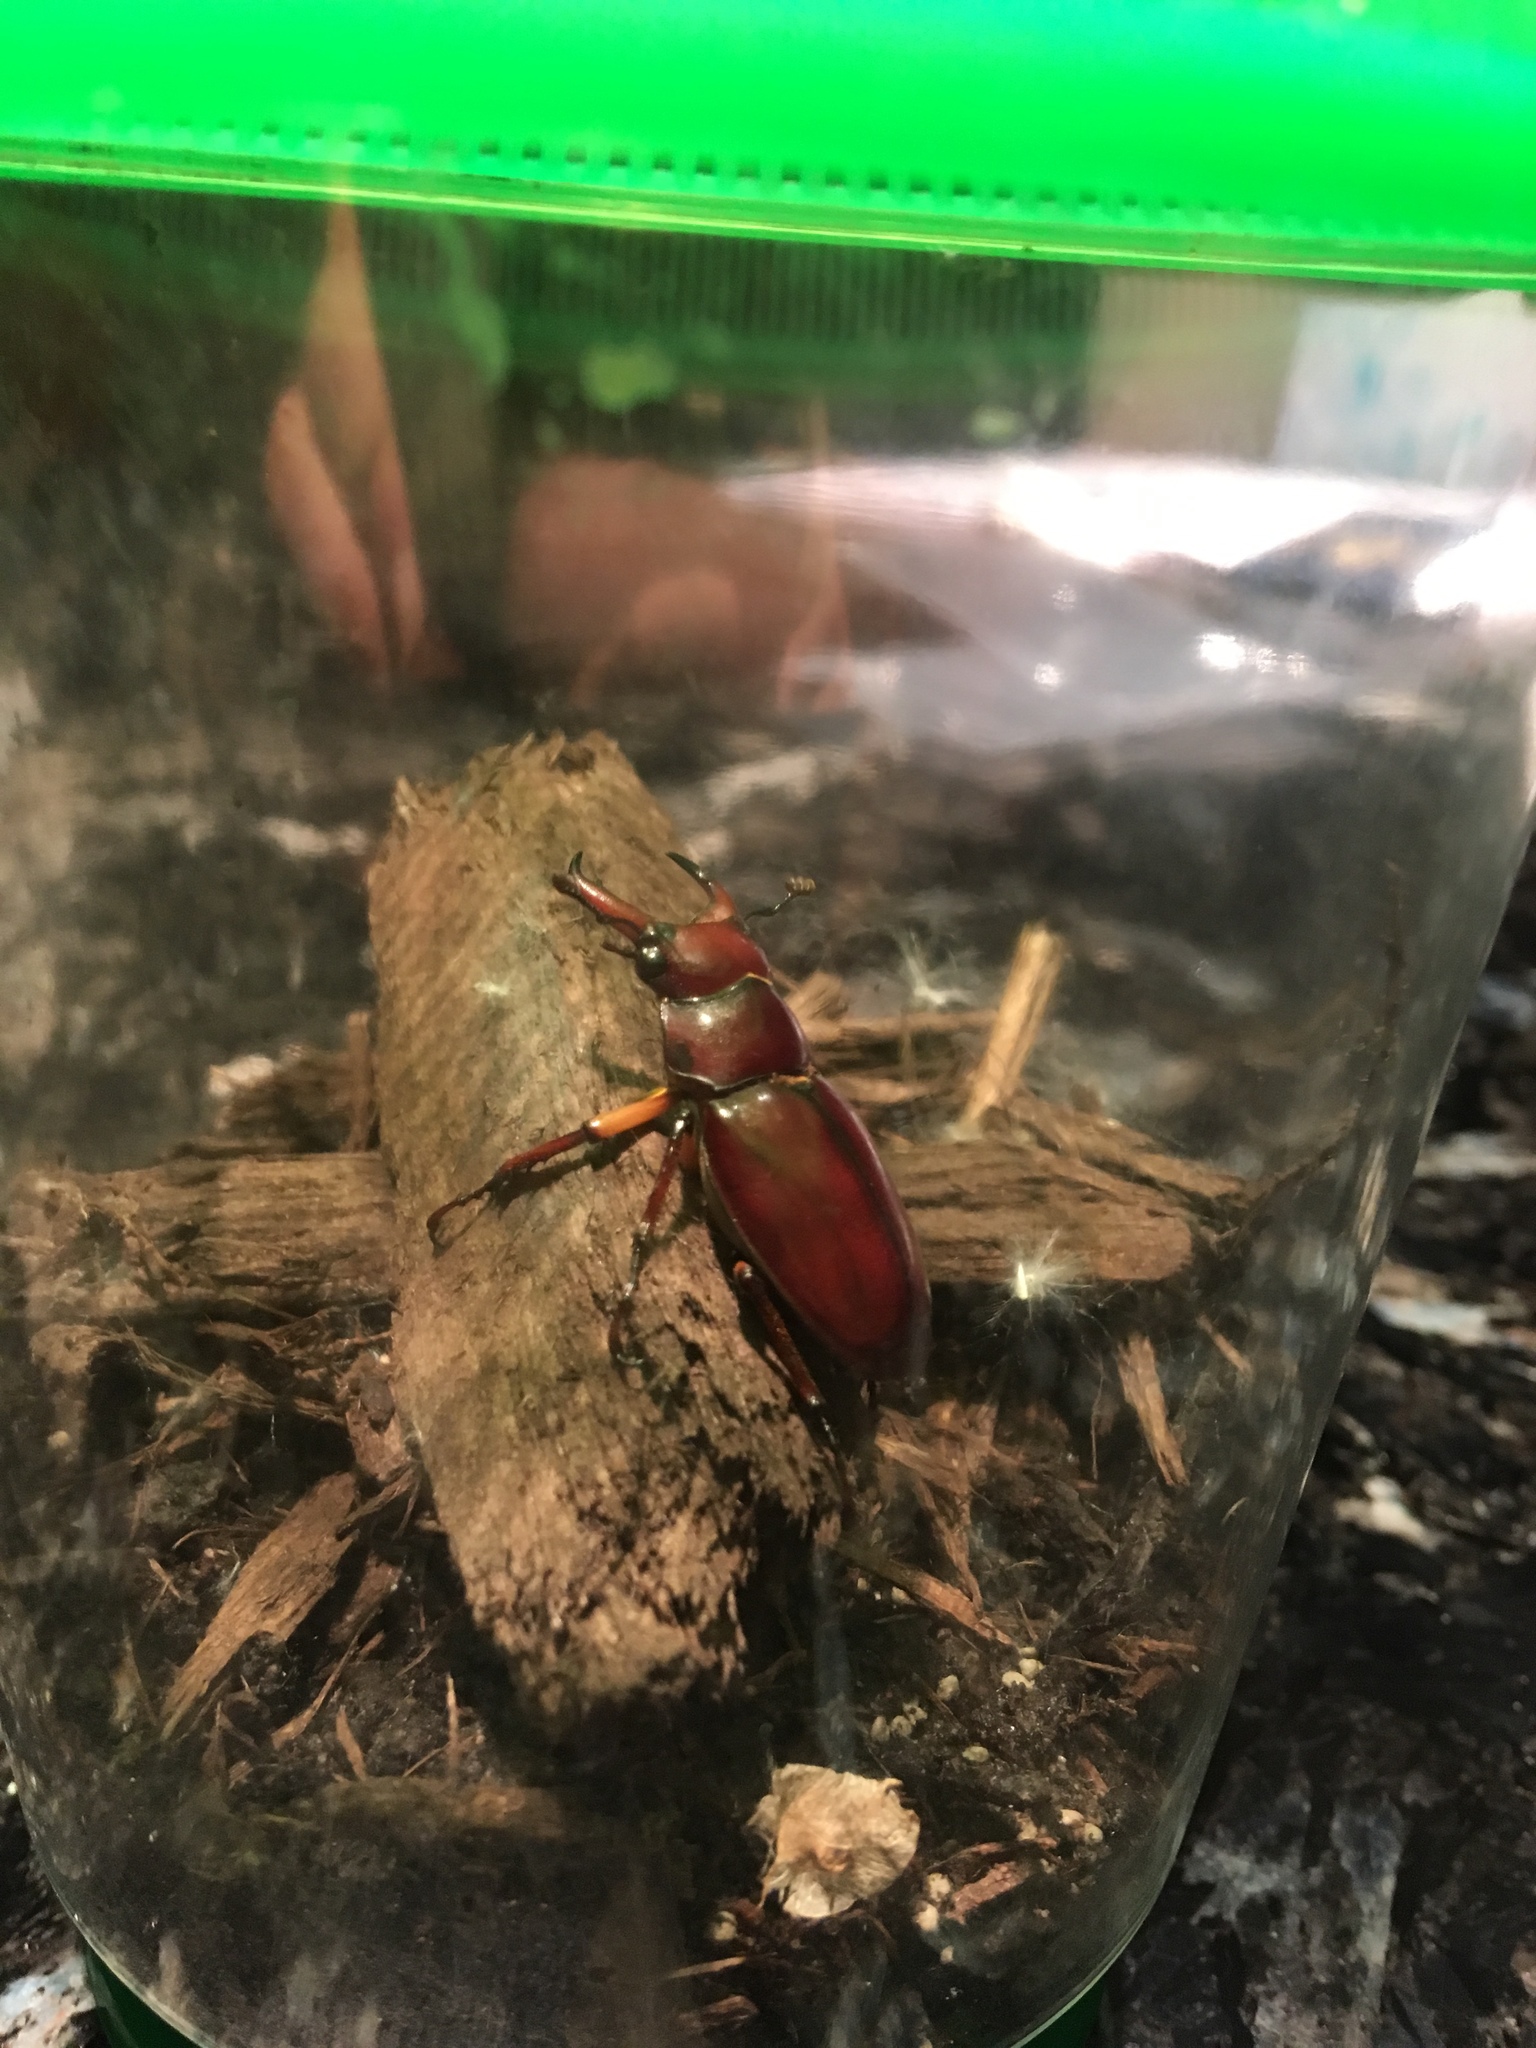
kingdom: Animalia
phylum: Arthropoda
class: Insecta
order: Coleoptera
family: Lucanidae
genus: Lucanus
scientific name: Lucanus capreolus
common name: Stag beetle
